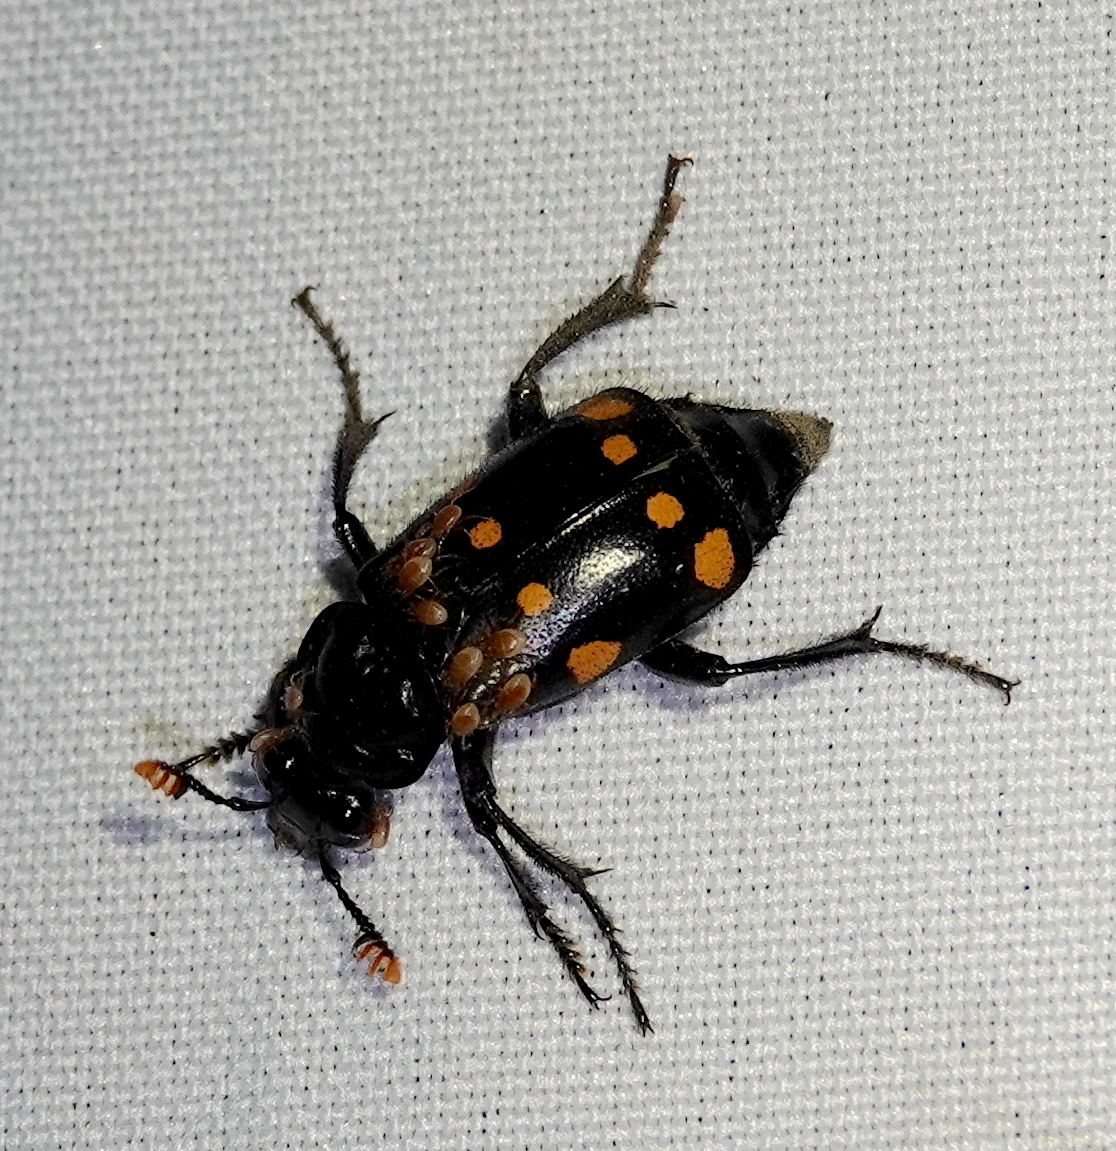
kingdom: Animalia
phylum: Arthropoda
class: Insecta
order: Coleoptera
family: Staphylinidae
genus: Nicrophorus
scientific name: Nicrophorus didymus
